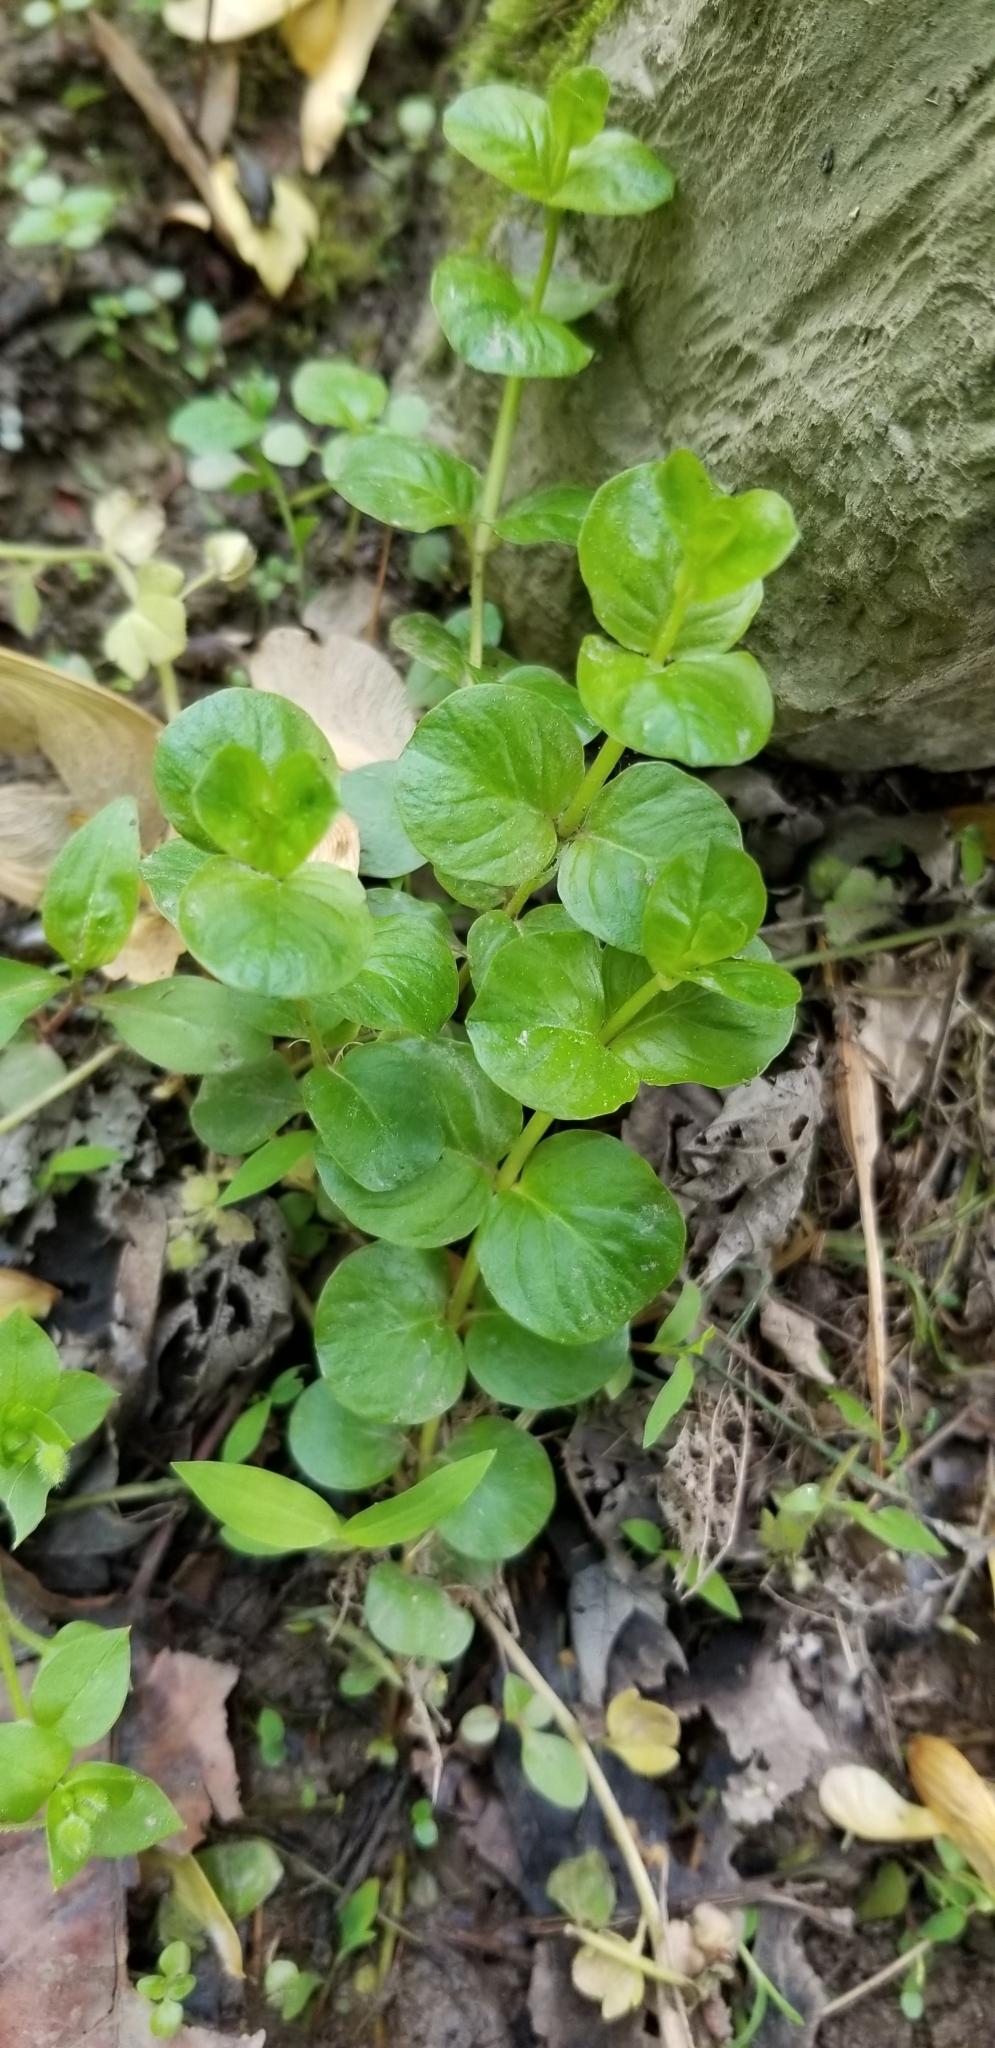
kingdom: Plantae
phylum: Tracheophyta
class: Magnoliopsida
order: Ericales
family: Primulaceae
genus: Lysimachia
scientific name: Lysimachia nummularia
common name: Moneywort
